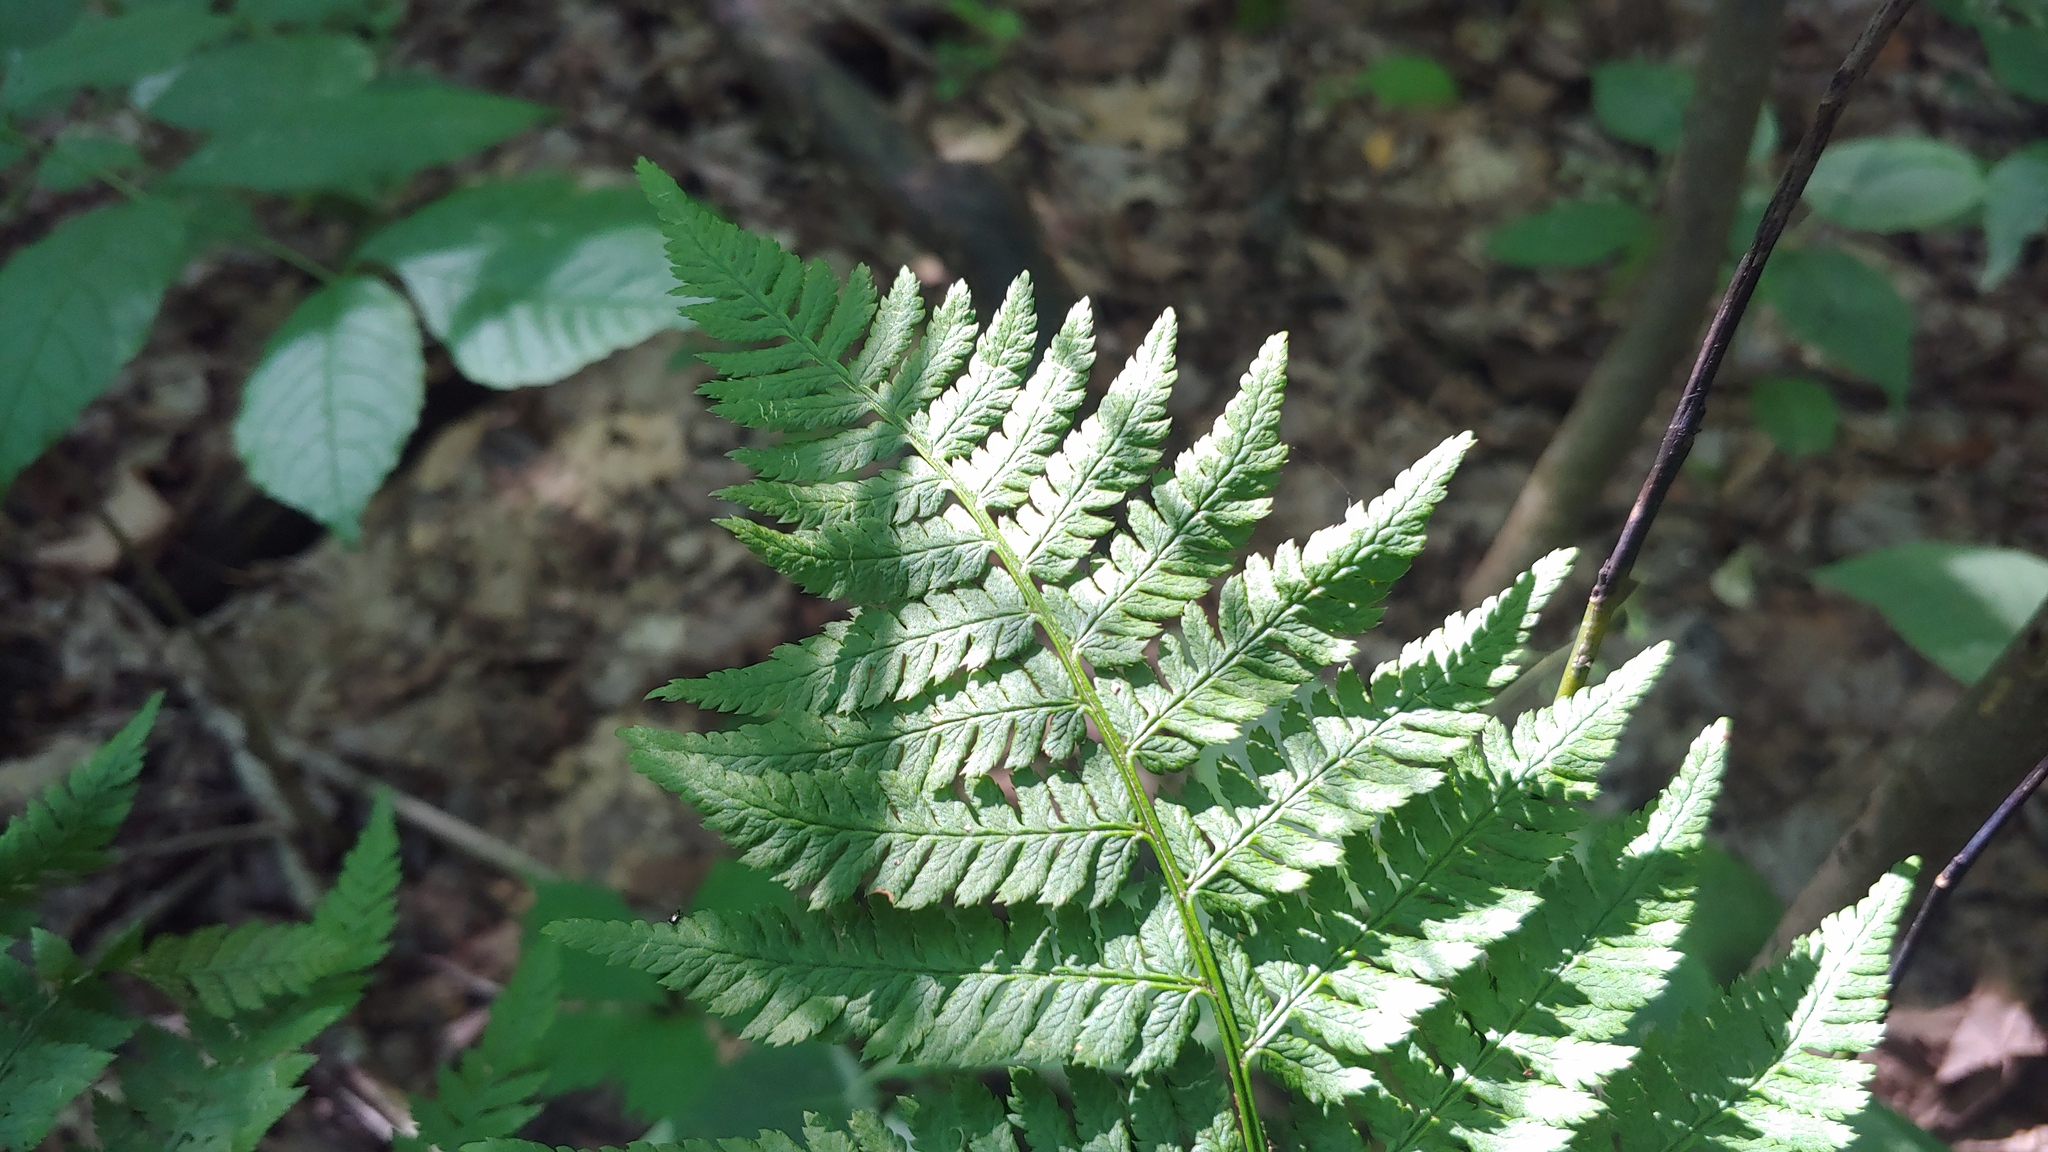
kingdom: Plantae
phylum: Tracheophyta
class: Polypodiopsida
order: Polypodiales
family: Dryopteridaceae
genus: Dryopteris
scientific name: Dryopteris carthusiana
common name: Narrow buckler-fern
